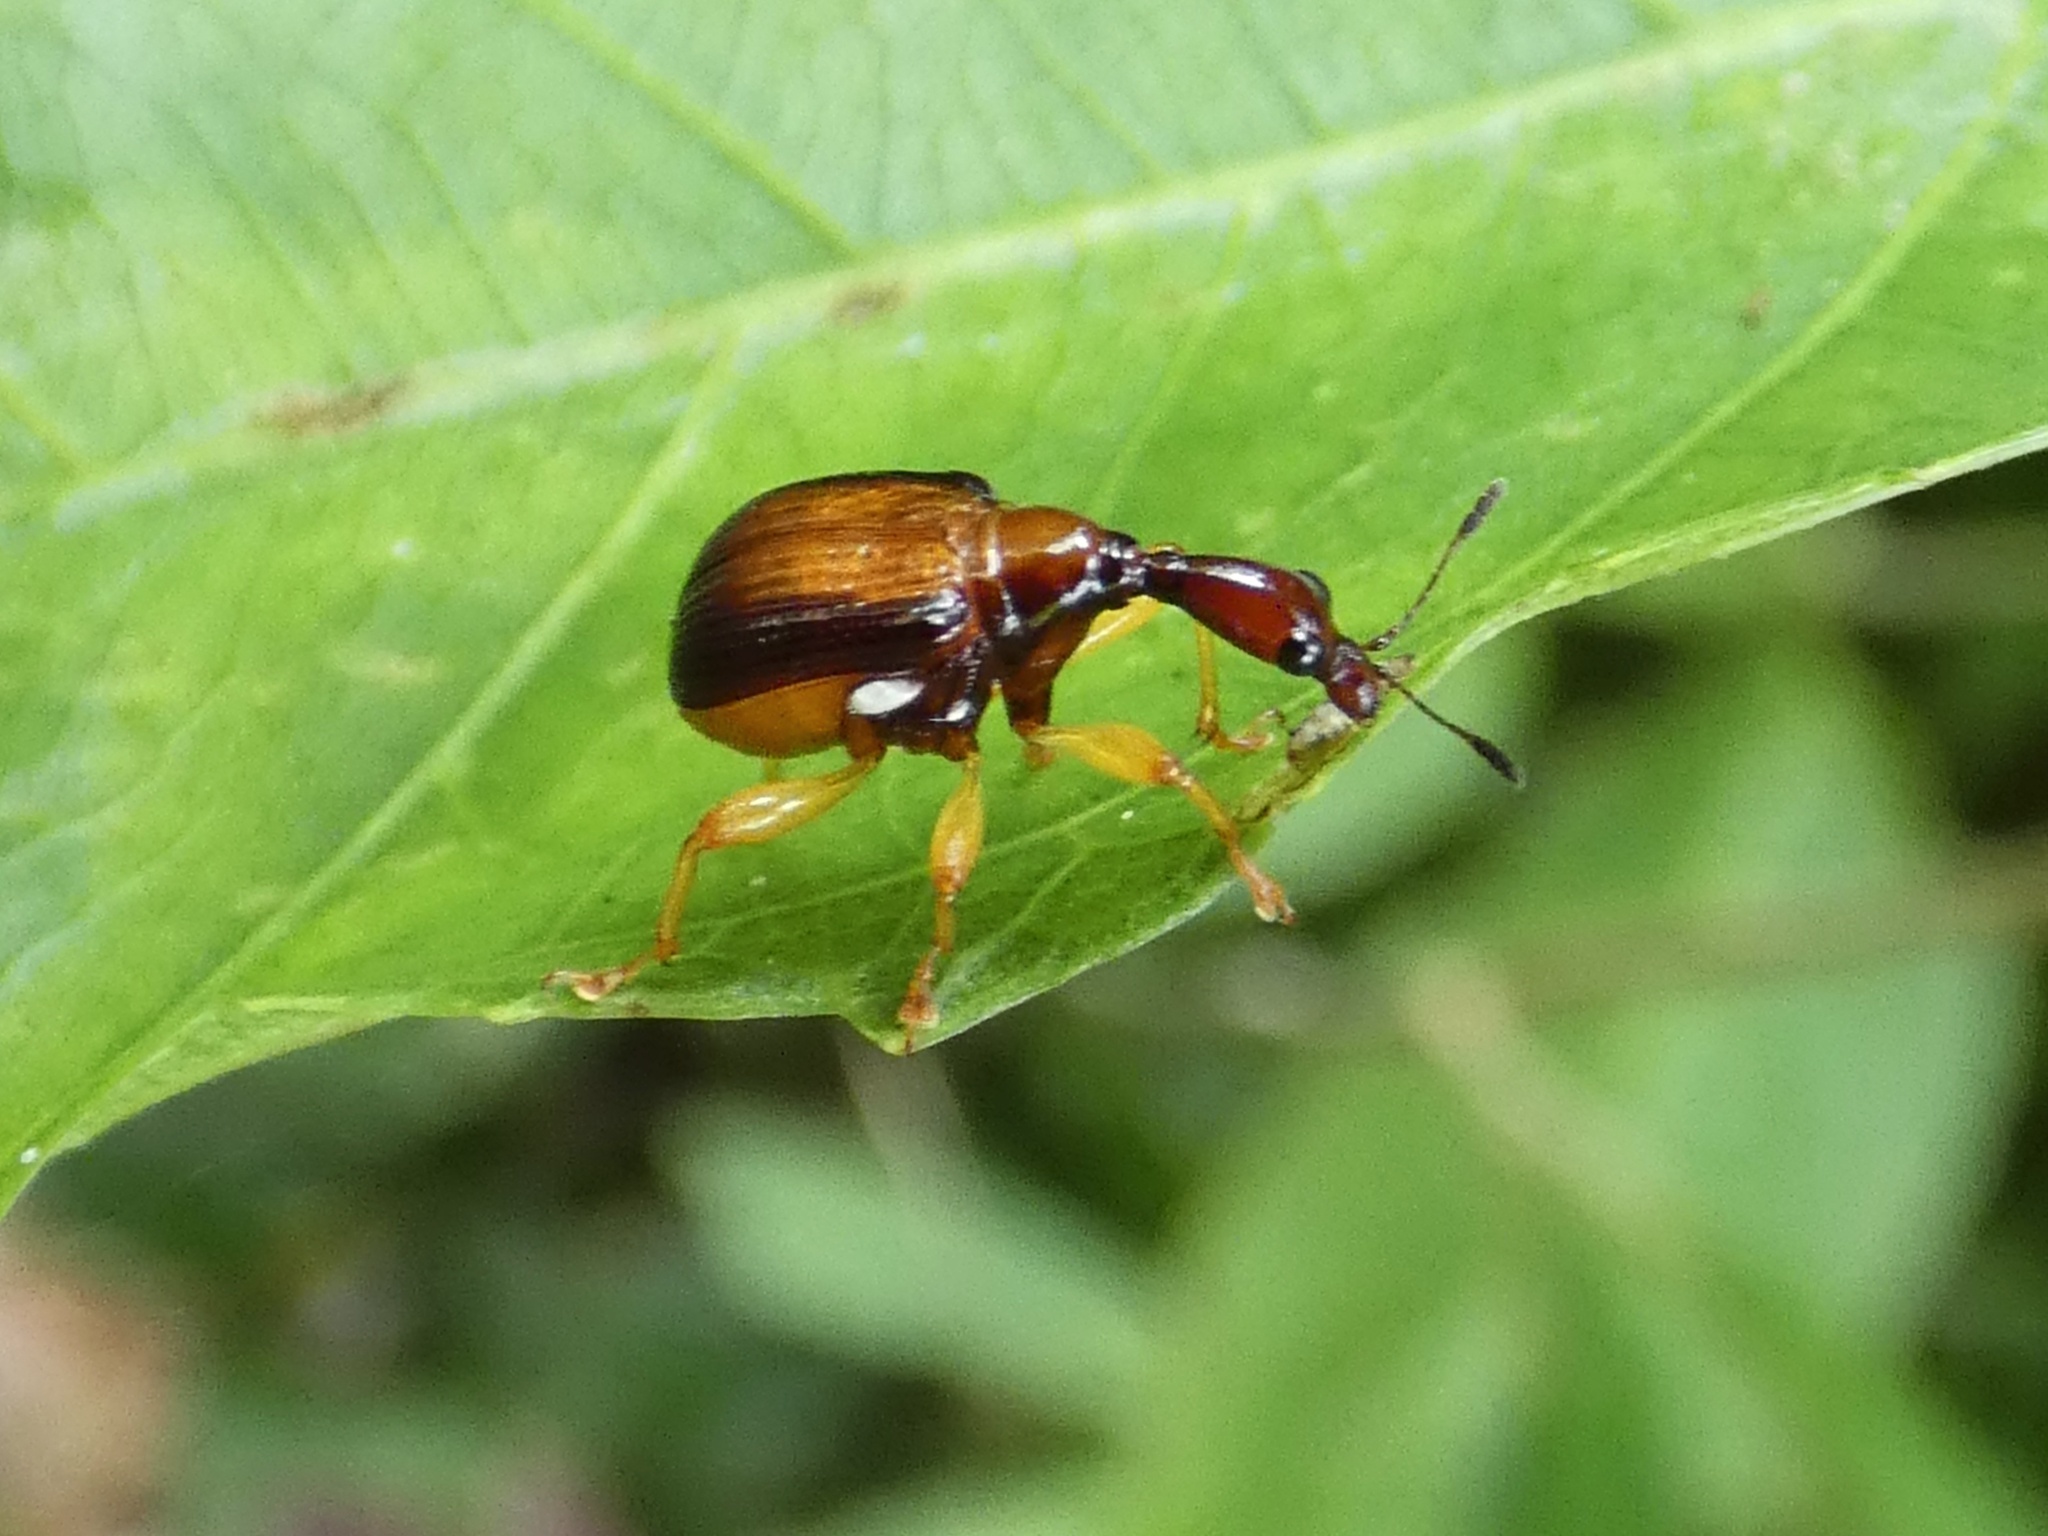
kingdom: Animalia
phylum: Arthropoda
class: Insecta
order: Coleoptera
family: Attelabidae
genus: Paracycnotrachelus
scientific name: Paracycnotrachelus fuscatus
